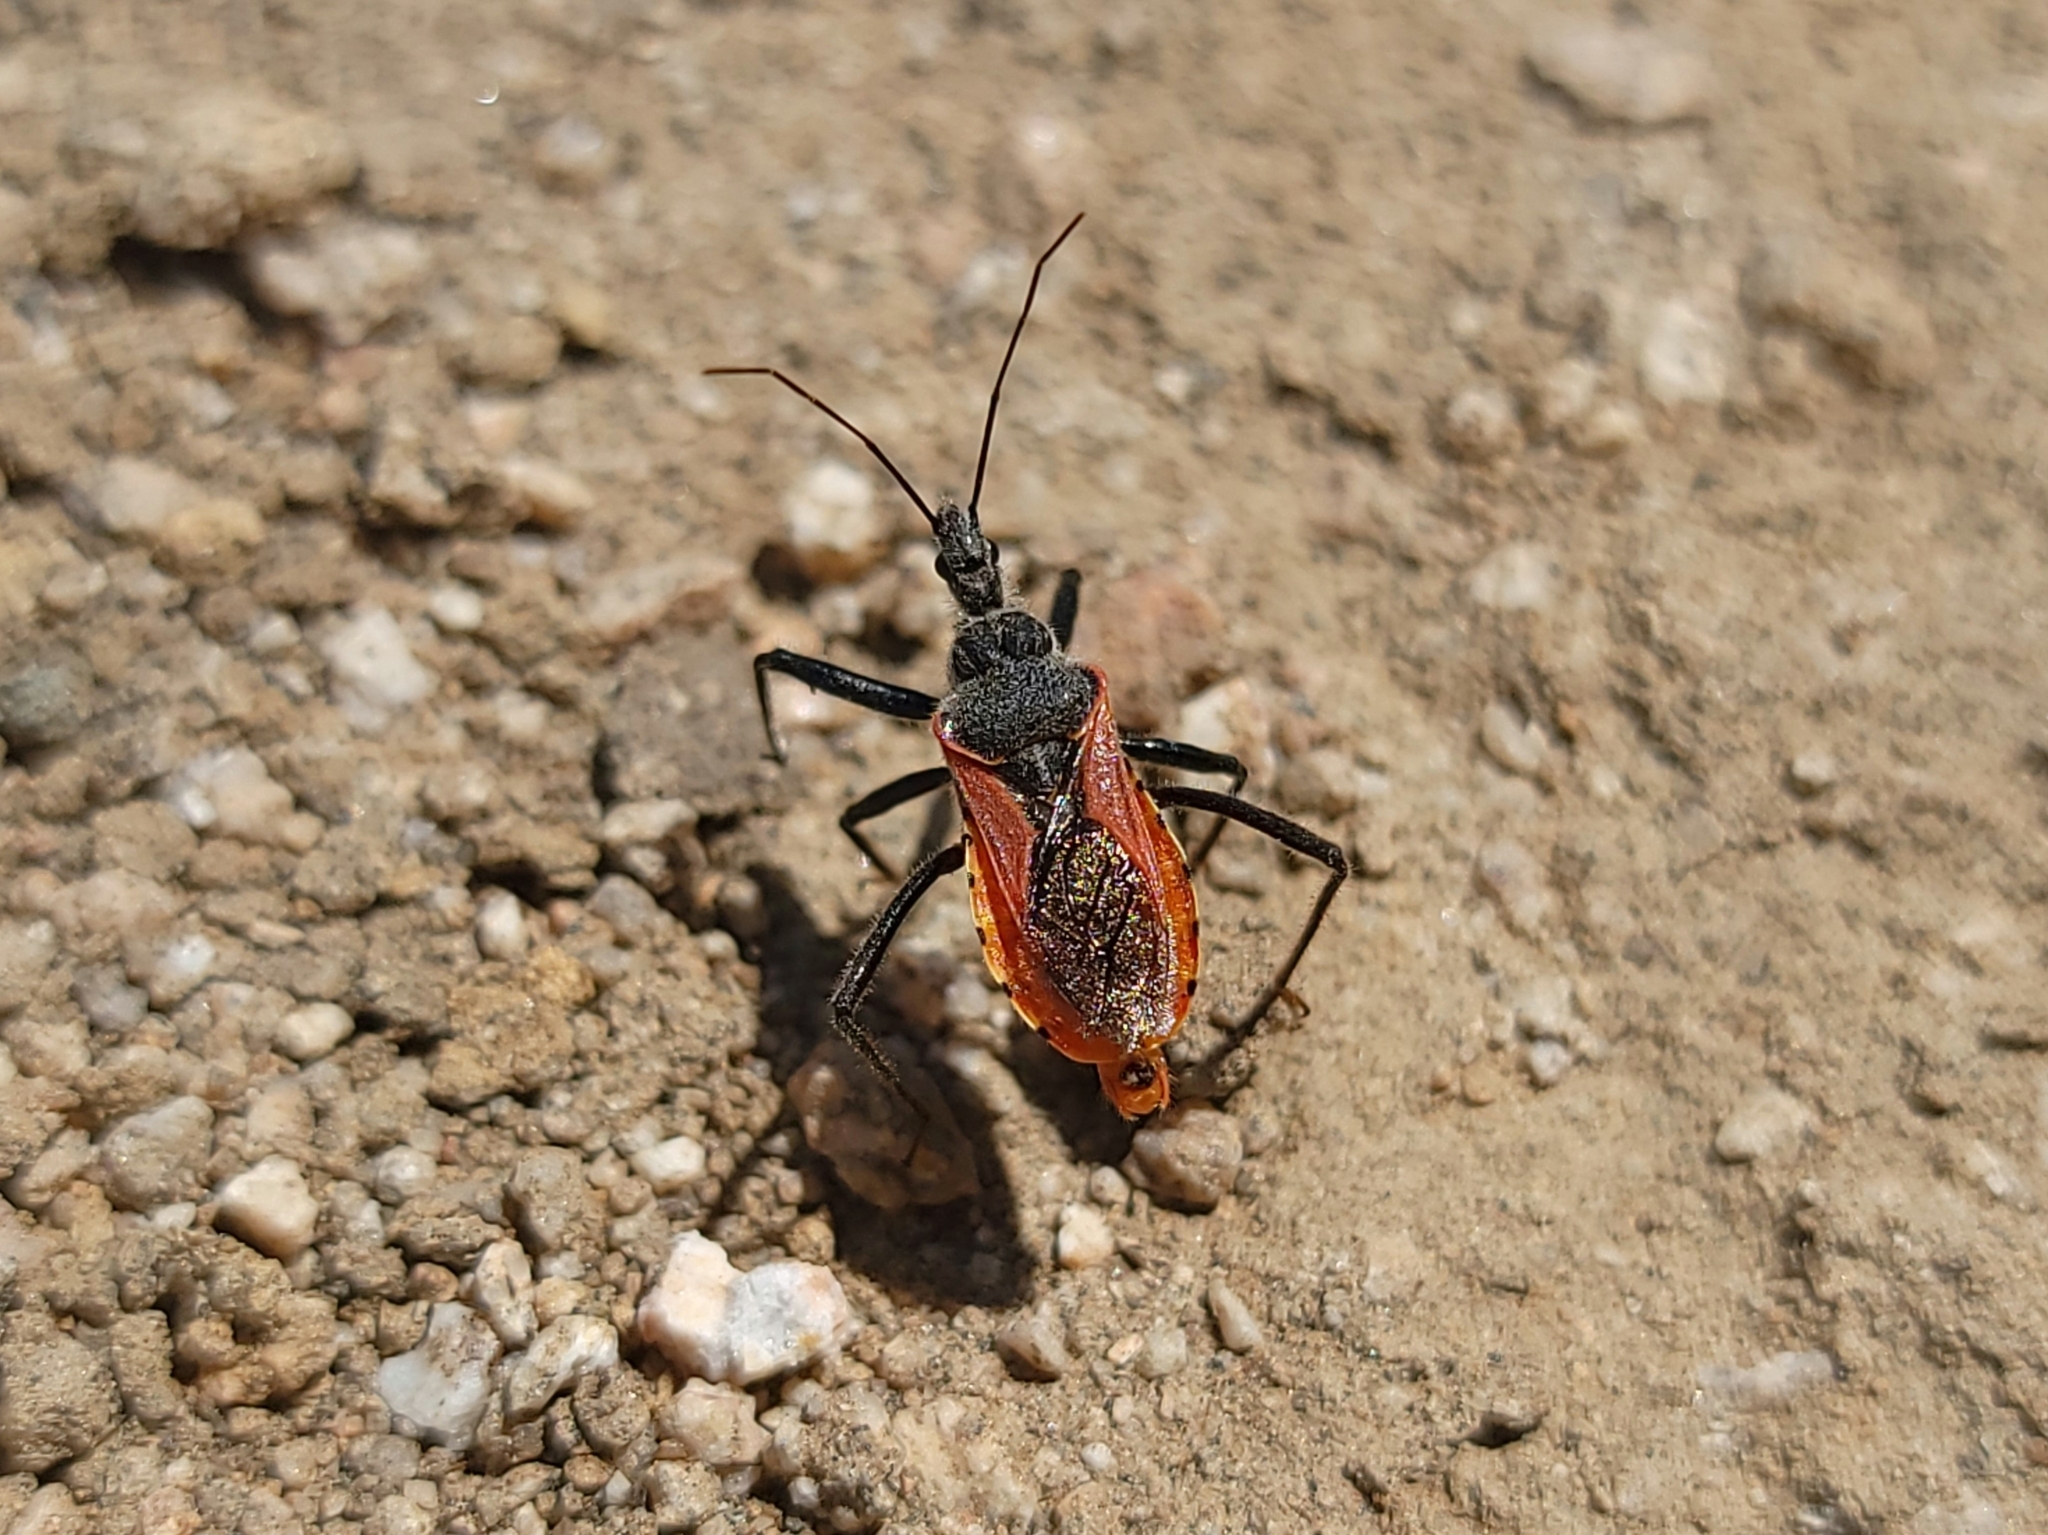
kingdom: Animalia
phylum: Arthropoda
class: Insecta
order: Hemiptera
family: Reduviidae
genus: Rhynocoris
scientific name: Rhynocoris ventralis
